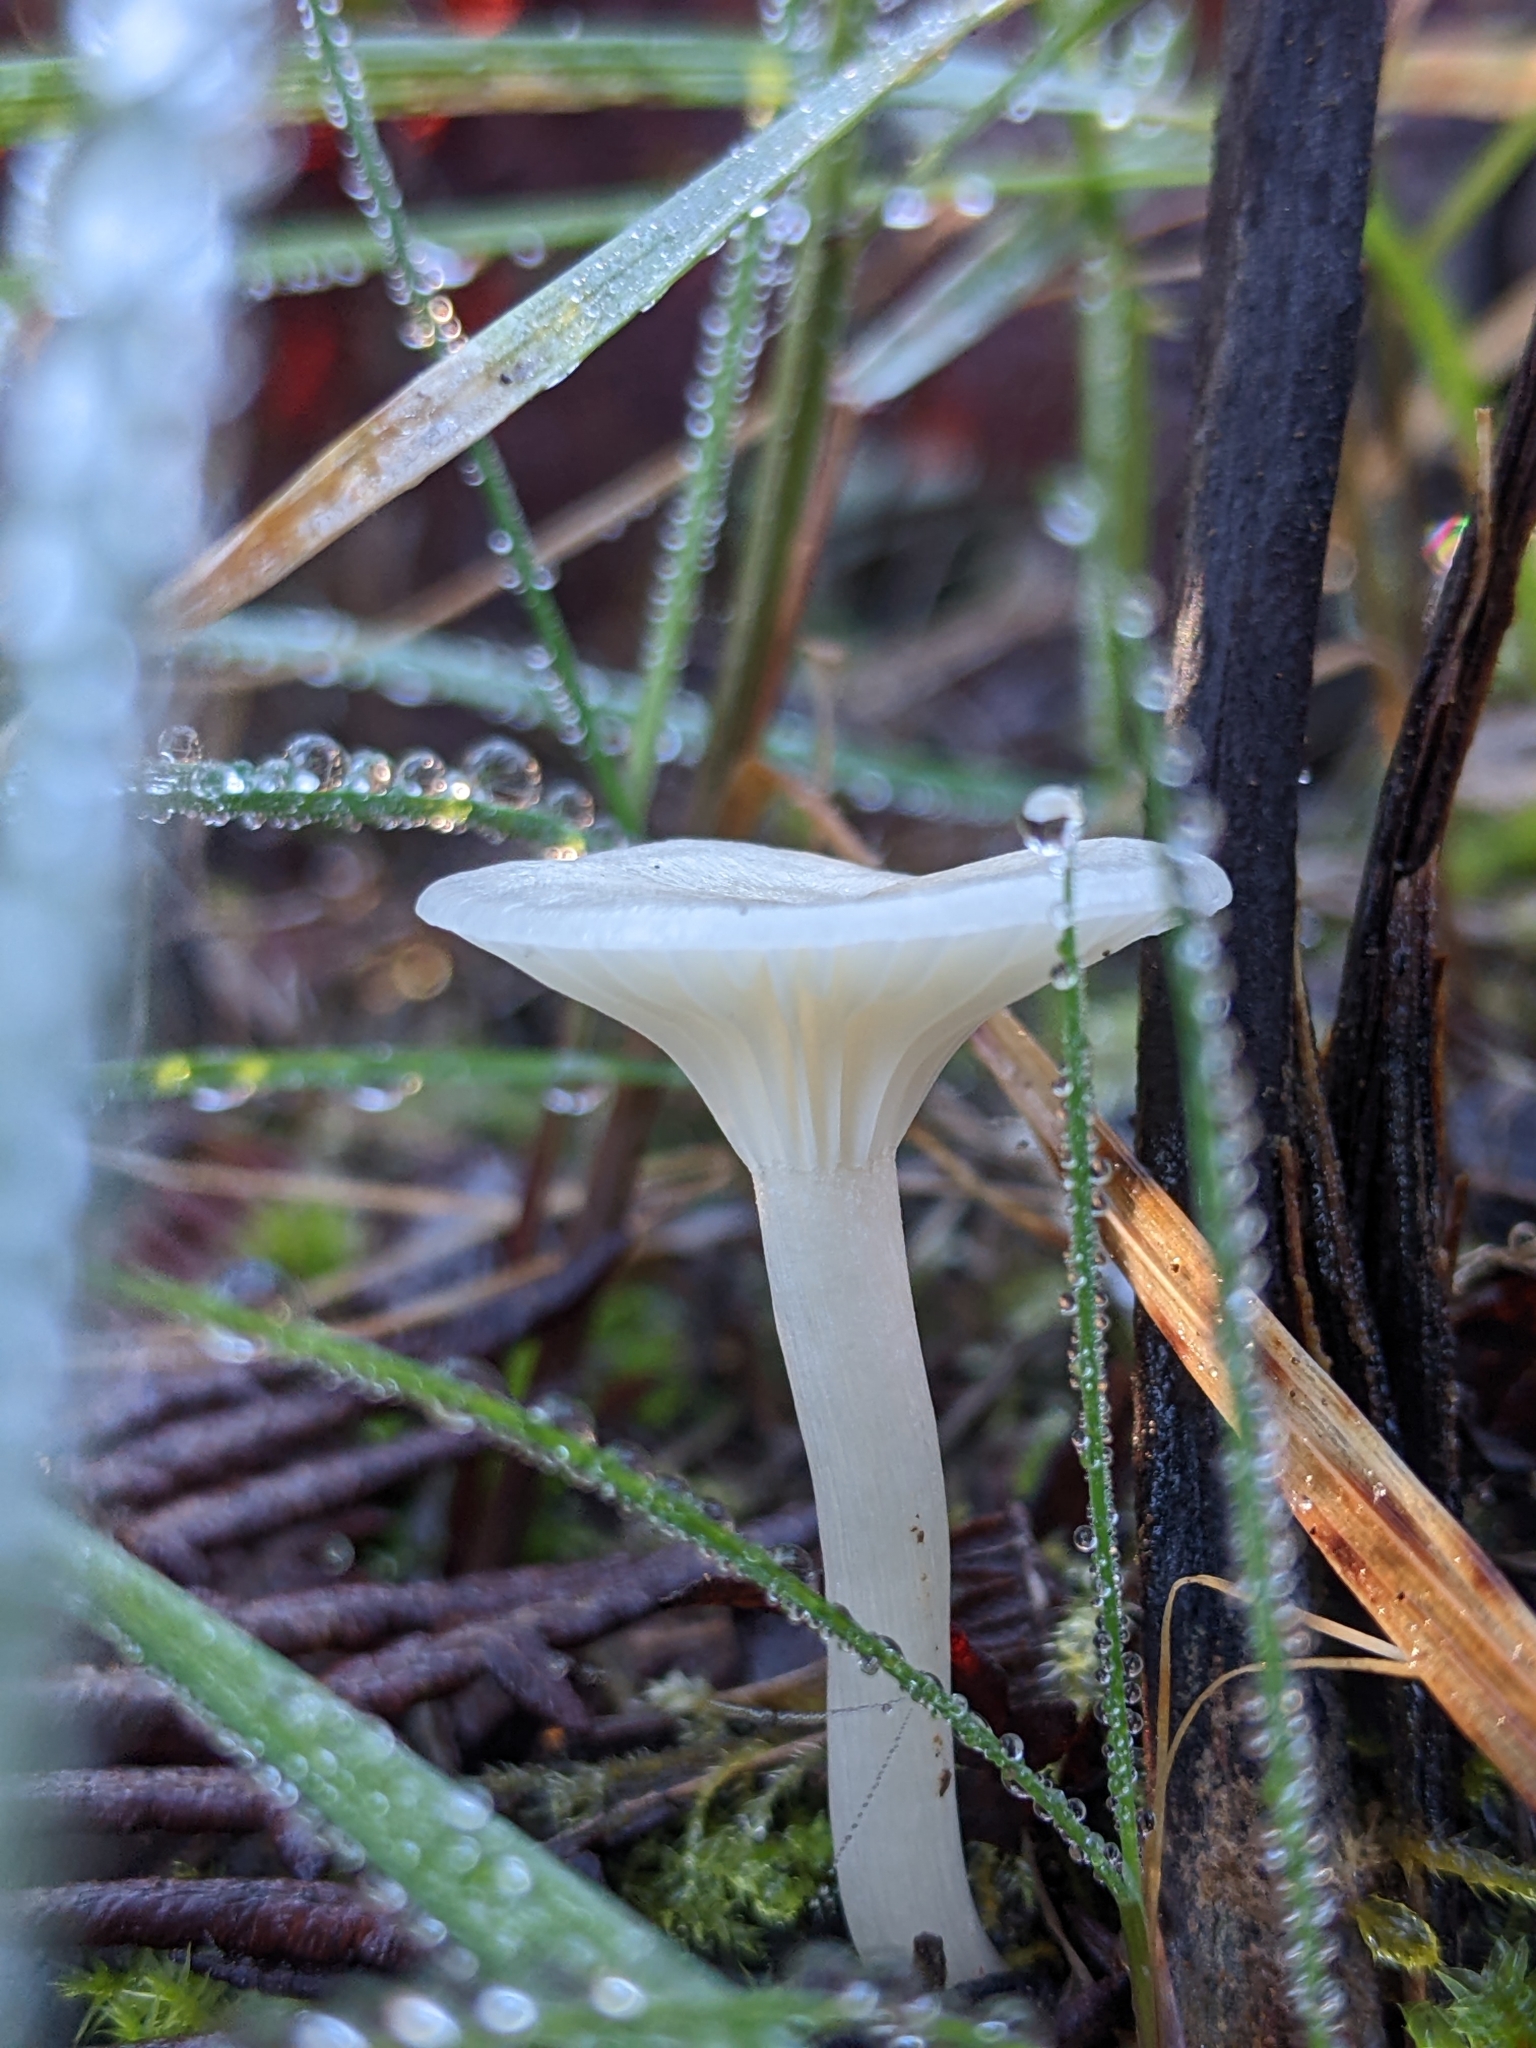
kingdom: Fungi
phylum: Basidiomycota
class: Agaricomycetes
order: Agaricales
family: Hygrophoraceae
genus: Cuphophyllus
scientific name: Cuphophyllus virgineus
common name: Snowy waxcap
